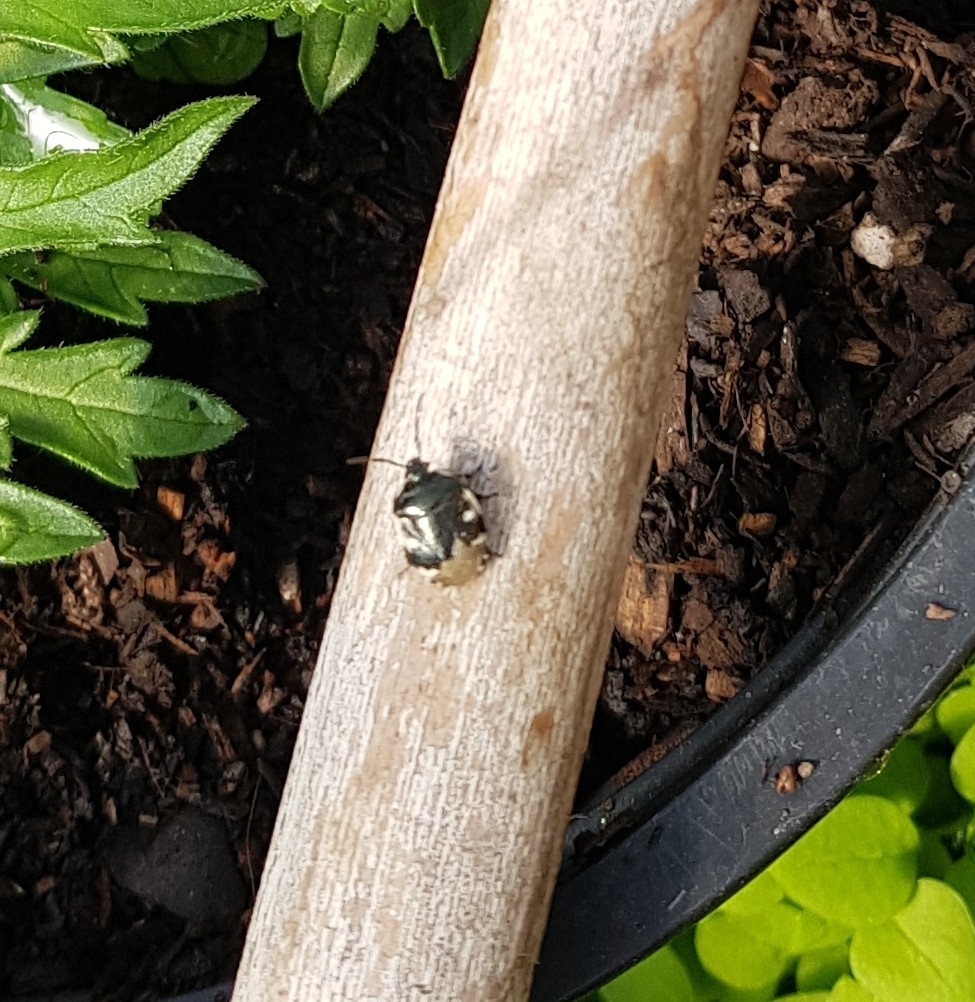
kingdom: Animalia
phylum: Arthropoda
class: Insecta
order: Hemiptera
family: Cydnidae
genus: Tritomegas
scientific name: Tritomegas bicolor
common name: Pied shieldbug
